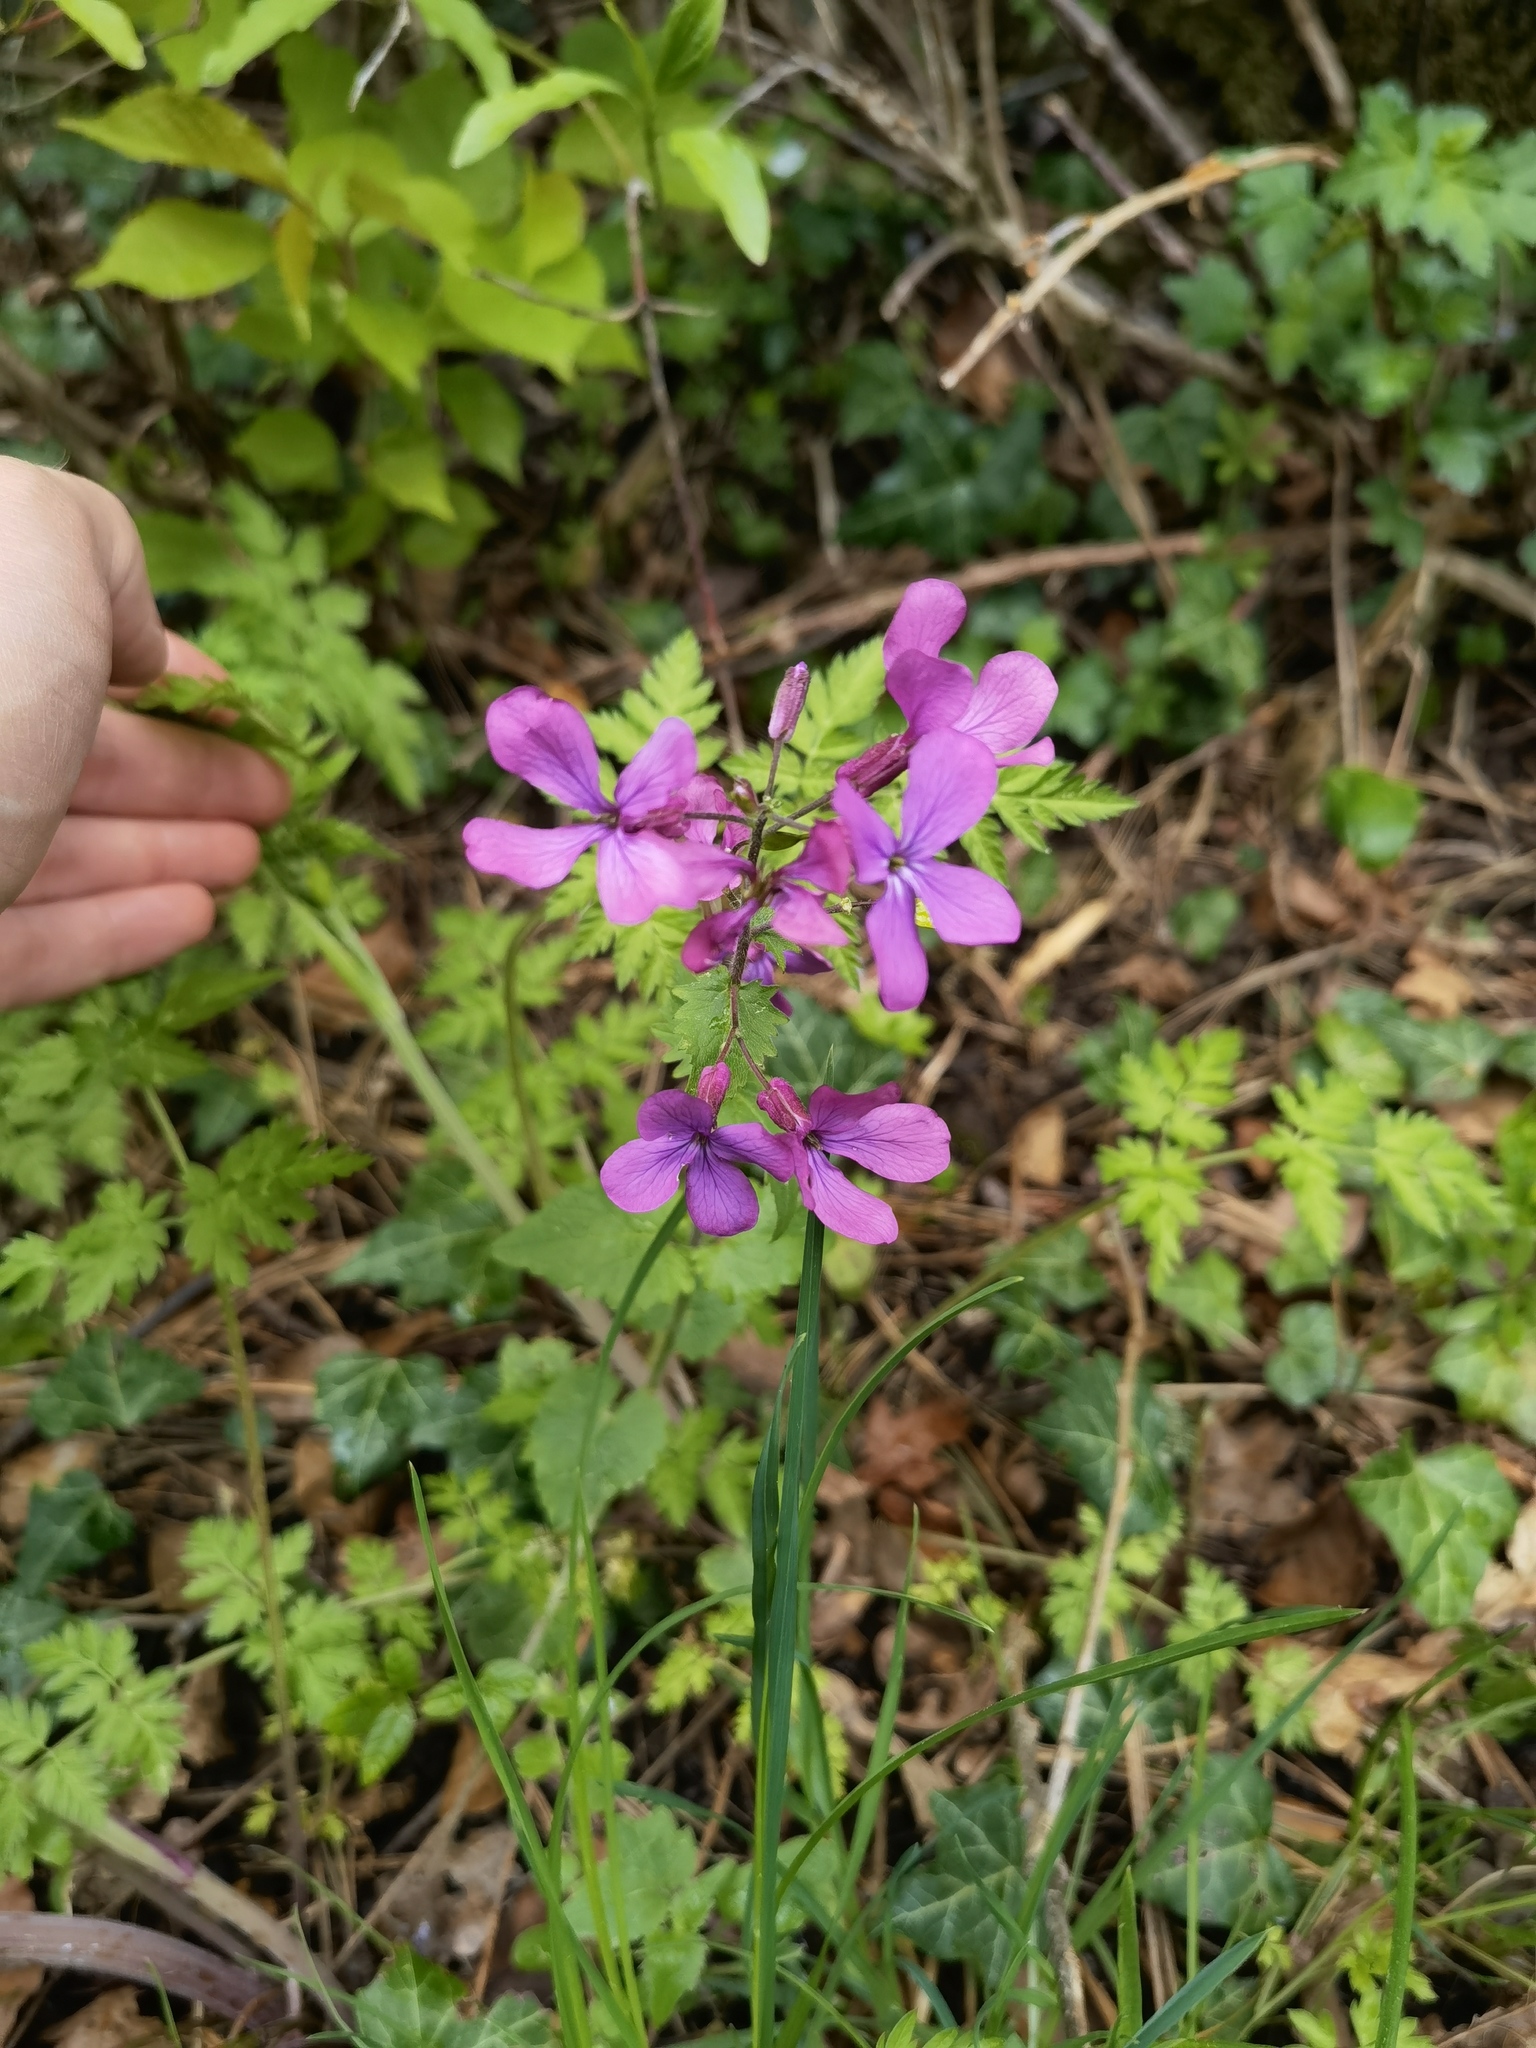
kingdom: Plantae
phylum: Tracheophyta
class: Magnoliopsida
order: Brassicales
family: Brassicaceae
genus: Lunaria
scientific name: Lunaria annua
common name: Honesty
